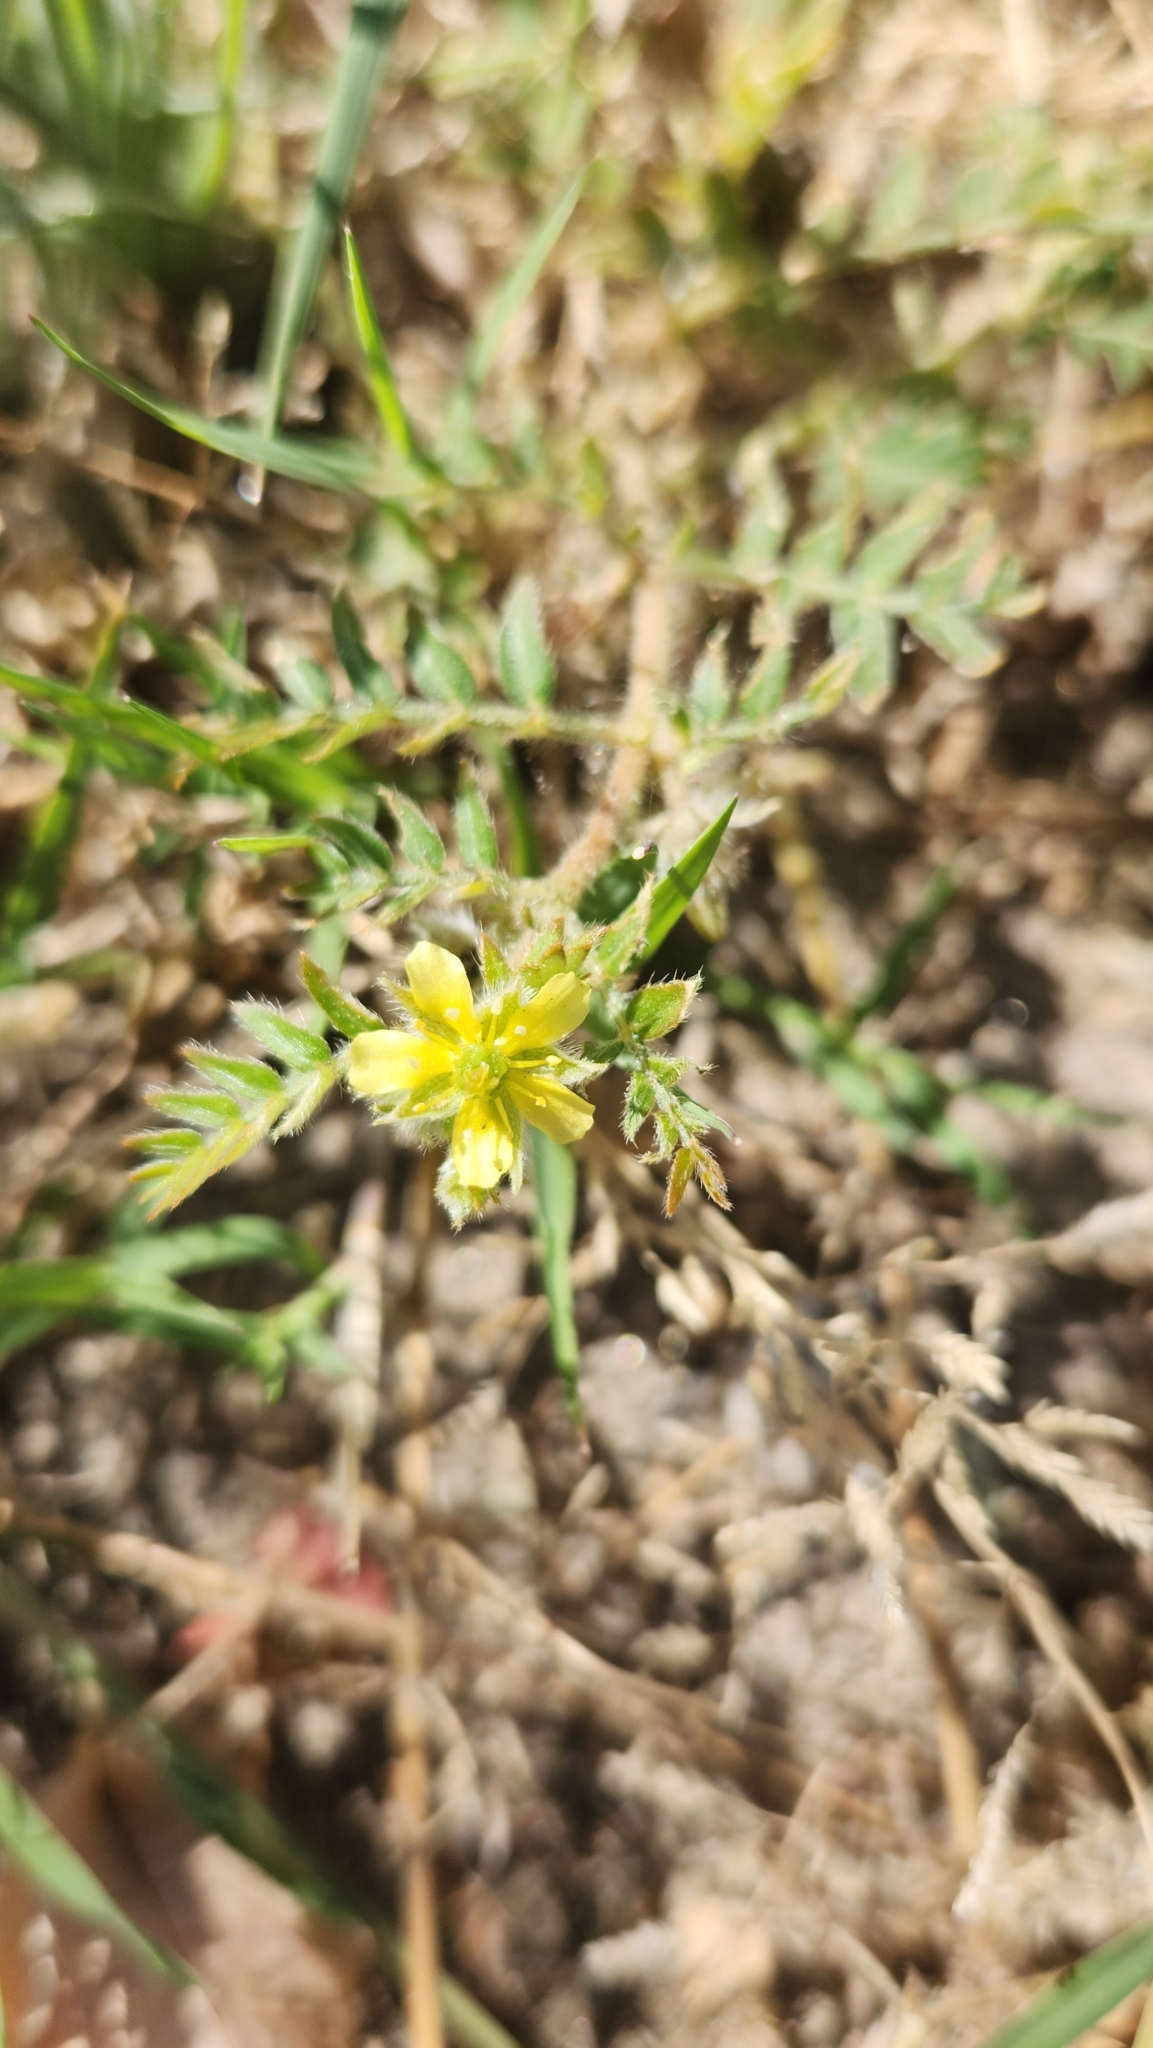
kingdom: Plantae
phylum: Tracheophyta
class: Magnoliopsida
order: Zygophyllales
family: Zygophyllaceae
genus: Tribulus
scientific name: Tribulus terrestris
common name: Puncturevine
